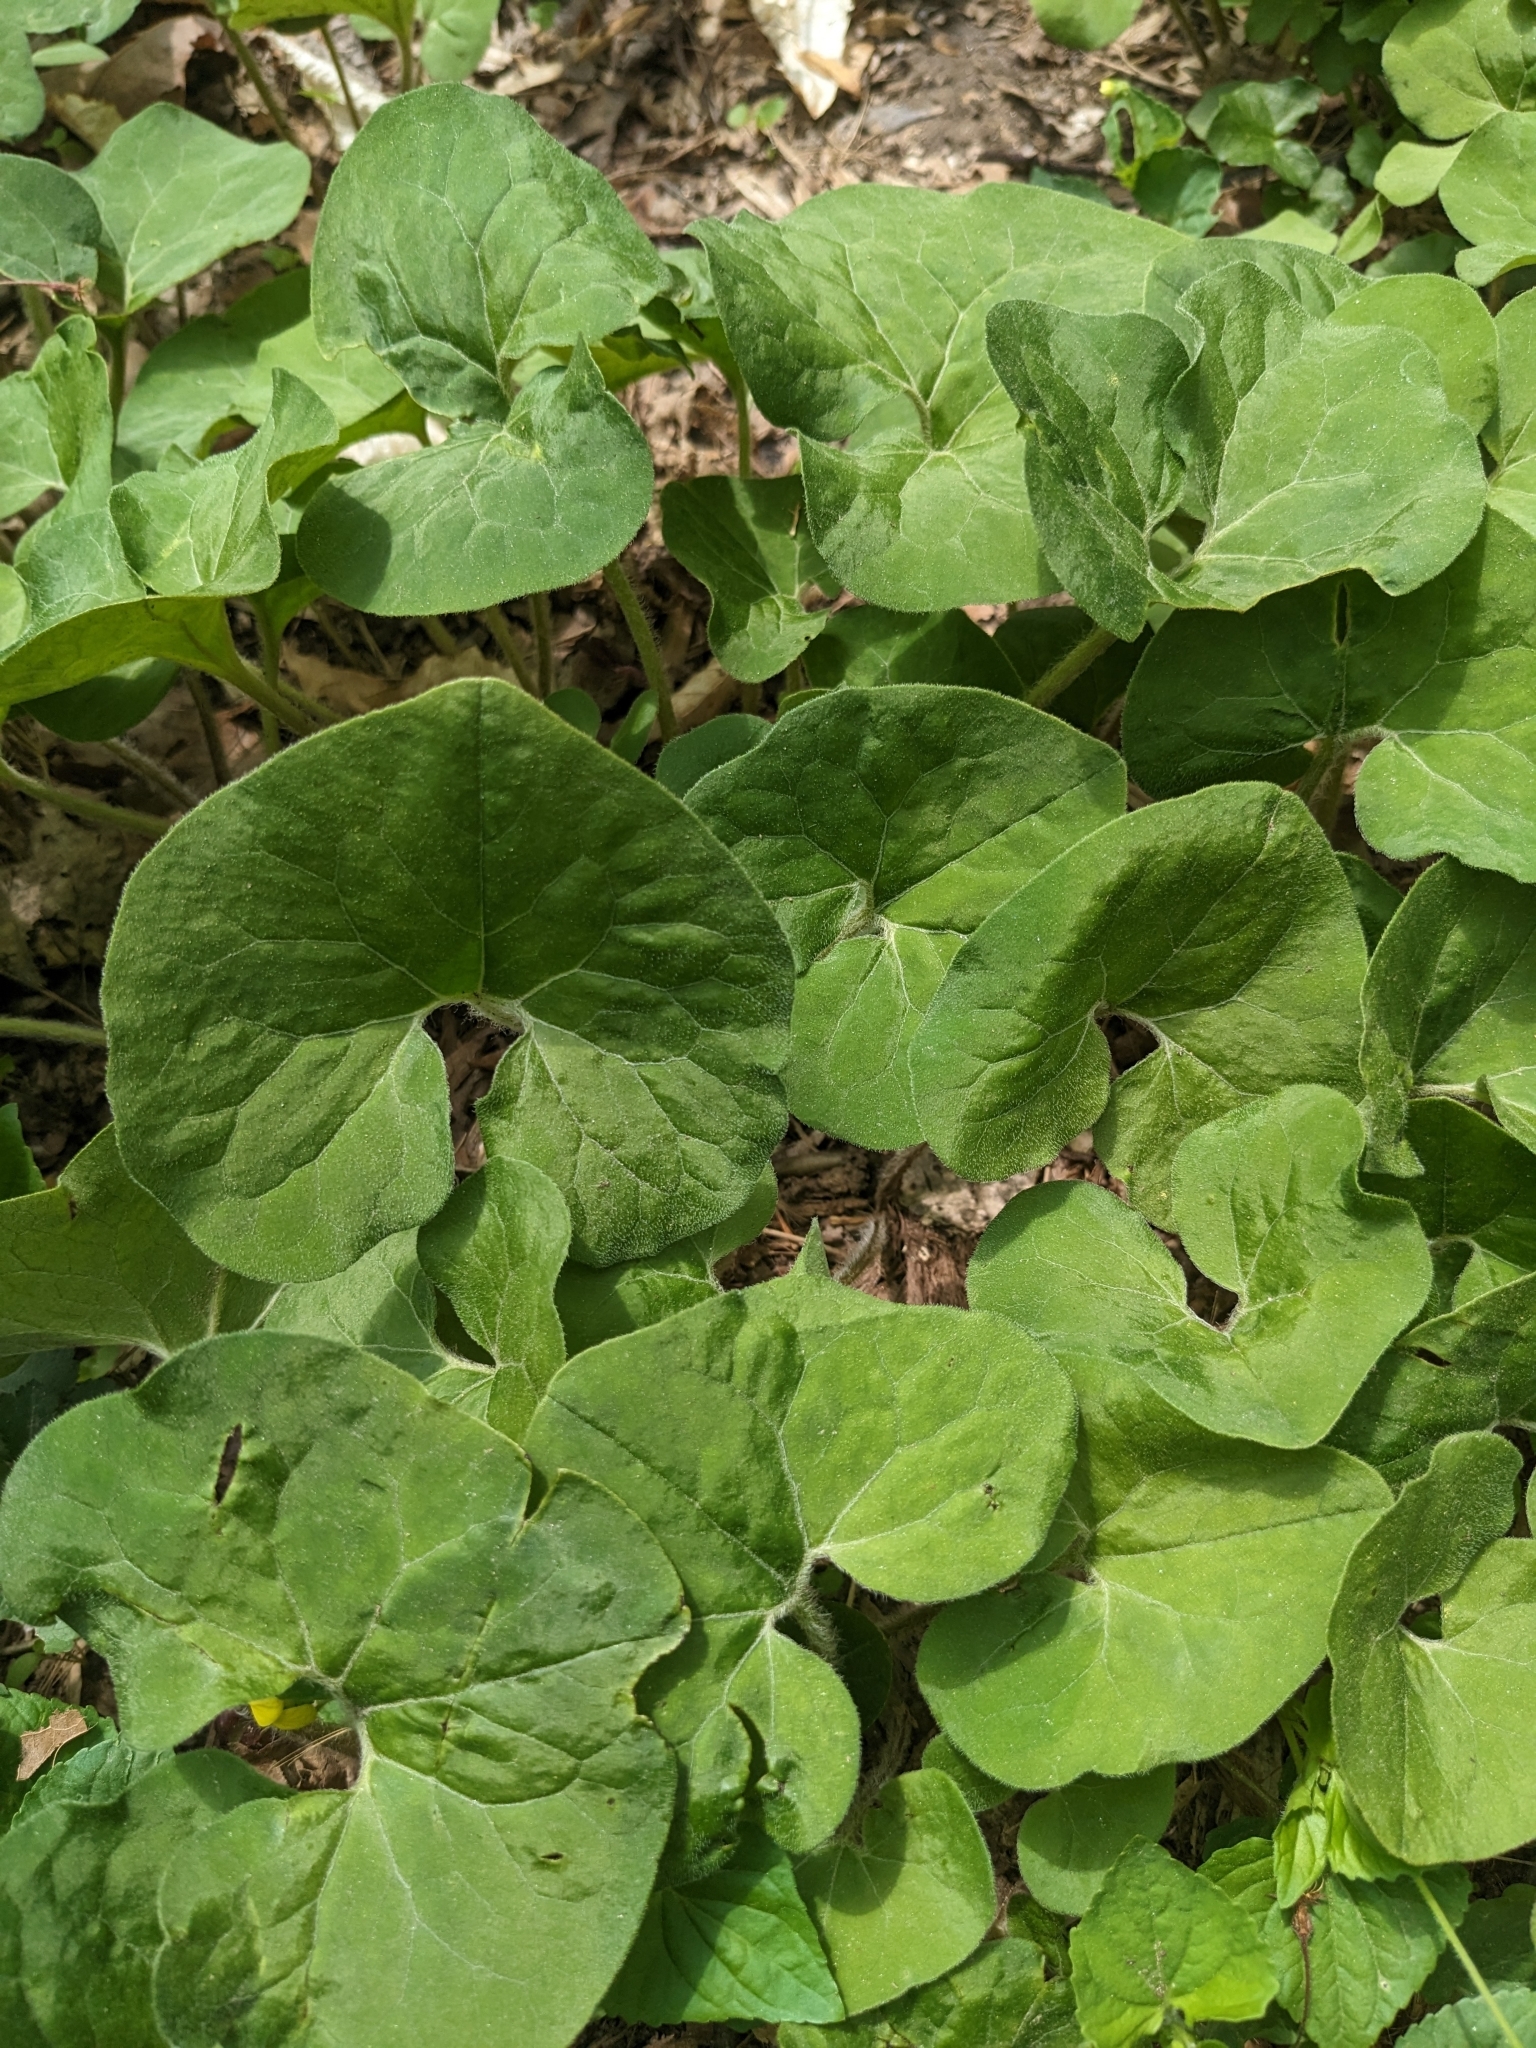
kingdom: Plantae
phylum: Tracheophyta
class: Magnoliopsida
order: Piperales
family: Aristolochiaceae
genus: Asarum
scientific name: Asarum canadense
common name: Wild ginger
